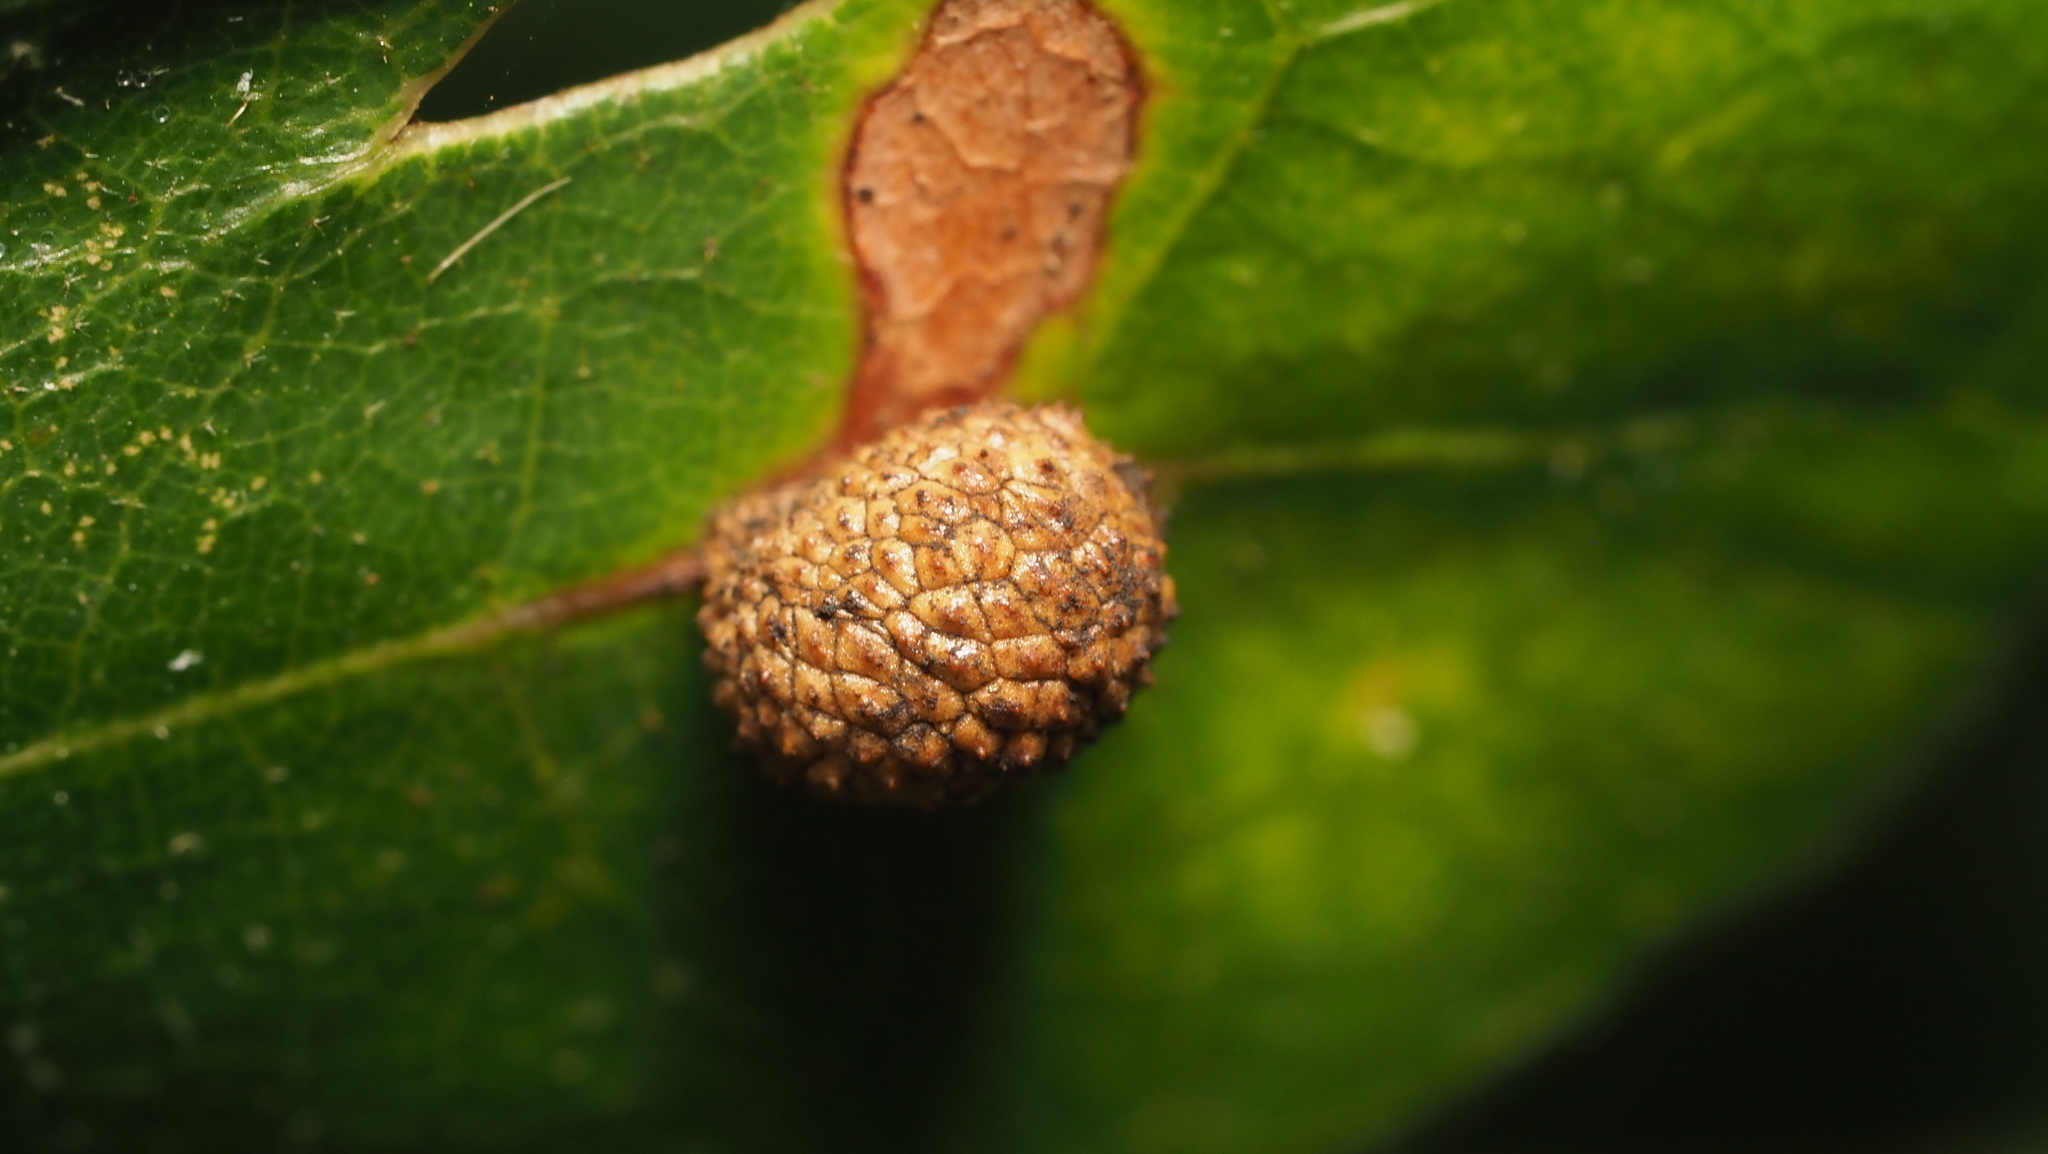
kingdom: Animalia
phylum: Arthropoda
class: Insecta
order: Hymenoptera
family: Cynipidae
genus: Acraspis
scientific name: Acraspis quercushirta
